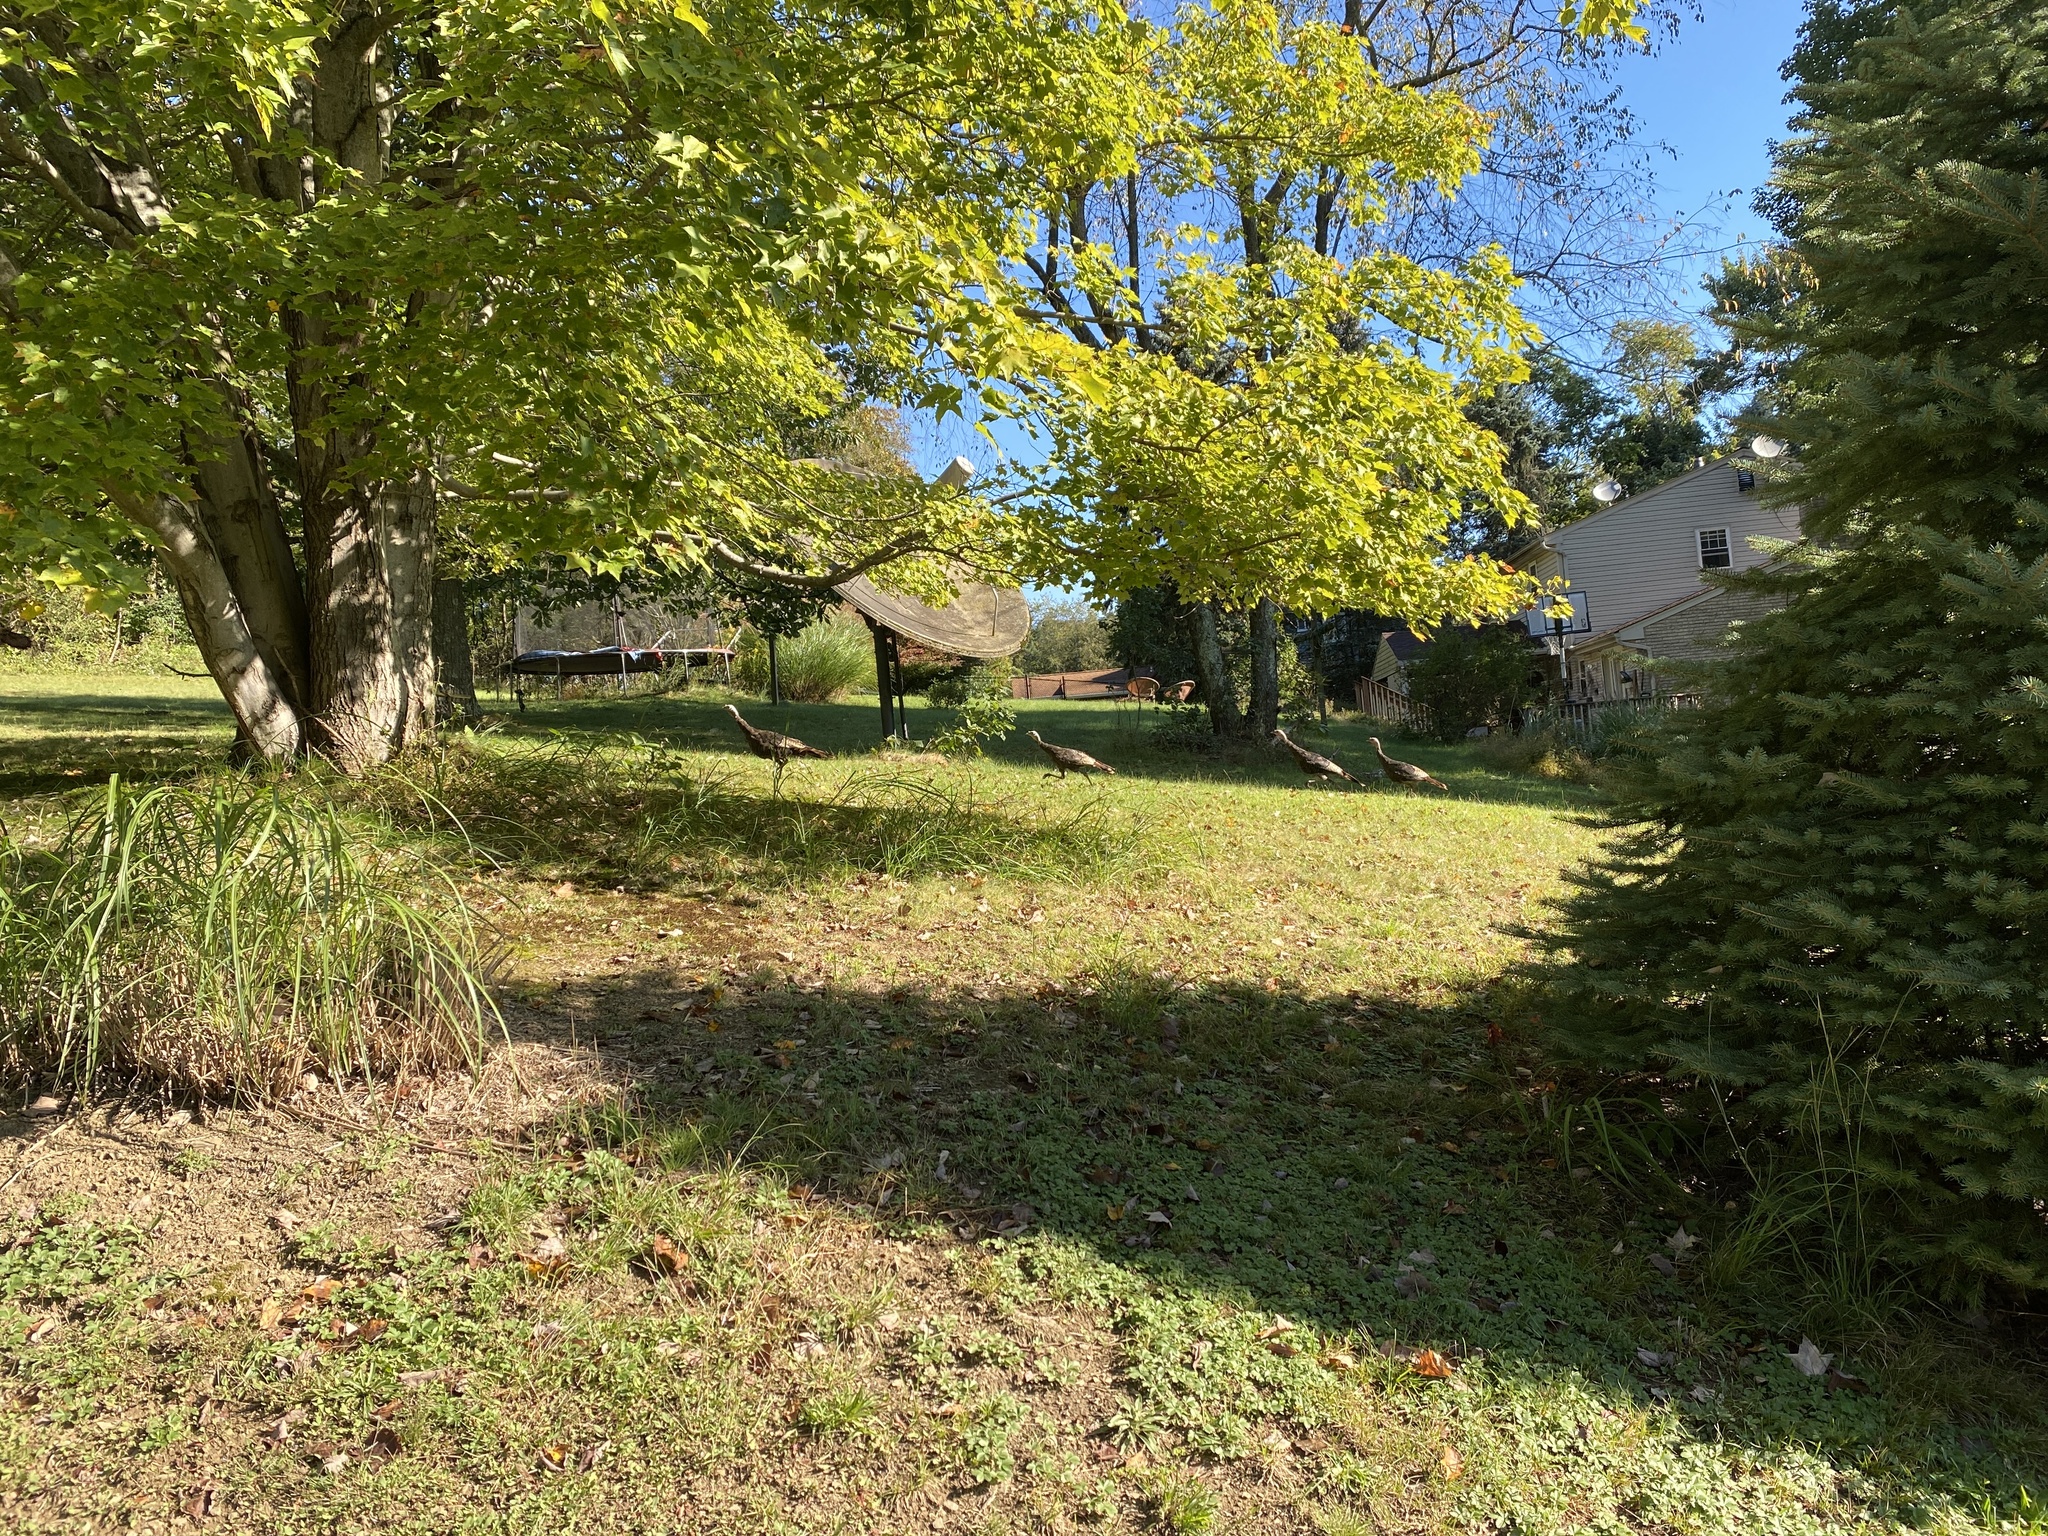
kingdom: Animalia
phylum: Chordata
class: Aves
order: Galliformes
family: Phasianidae
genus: Meleagris
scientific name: Meleagris gallopavo
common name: Wild turkey
